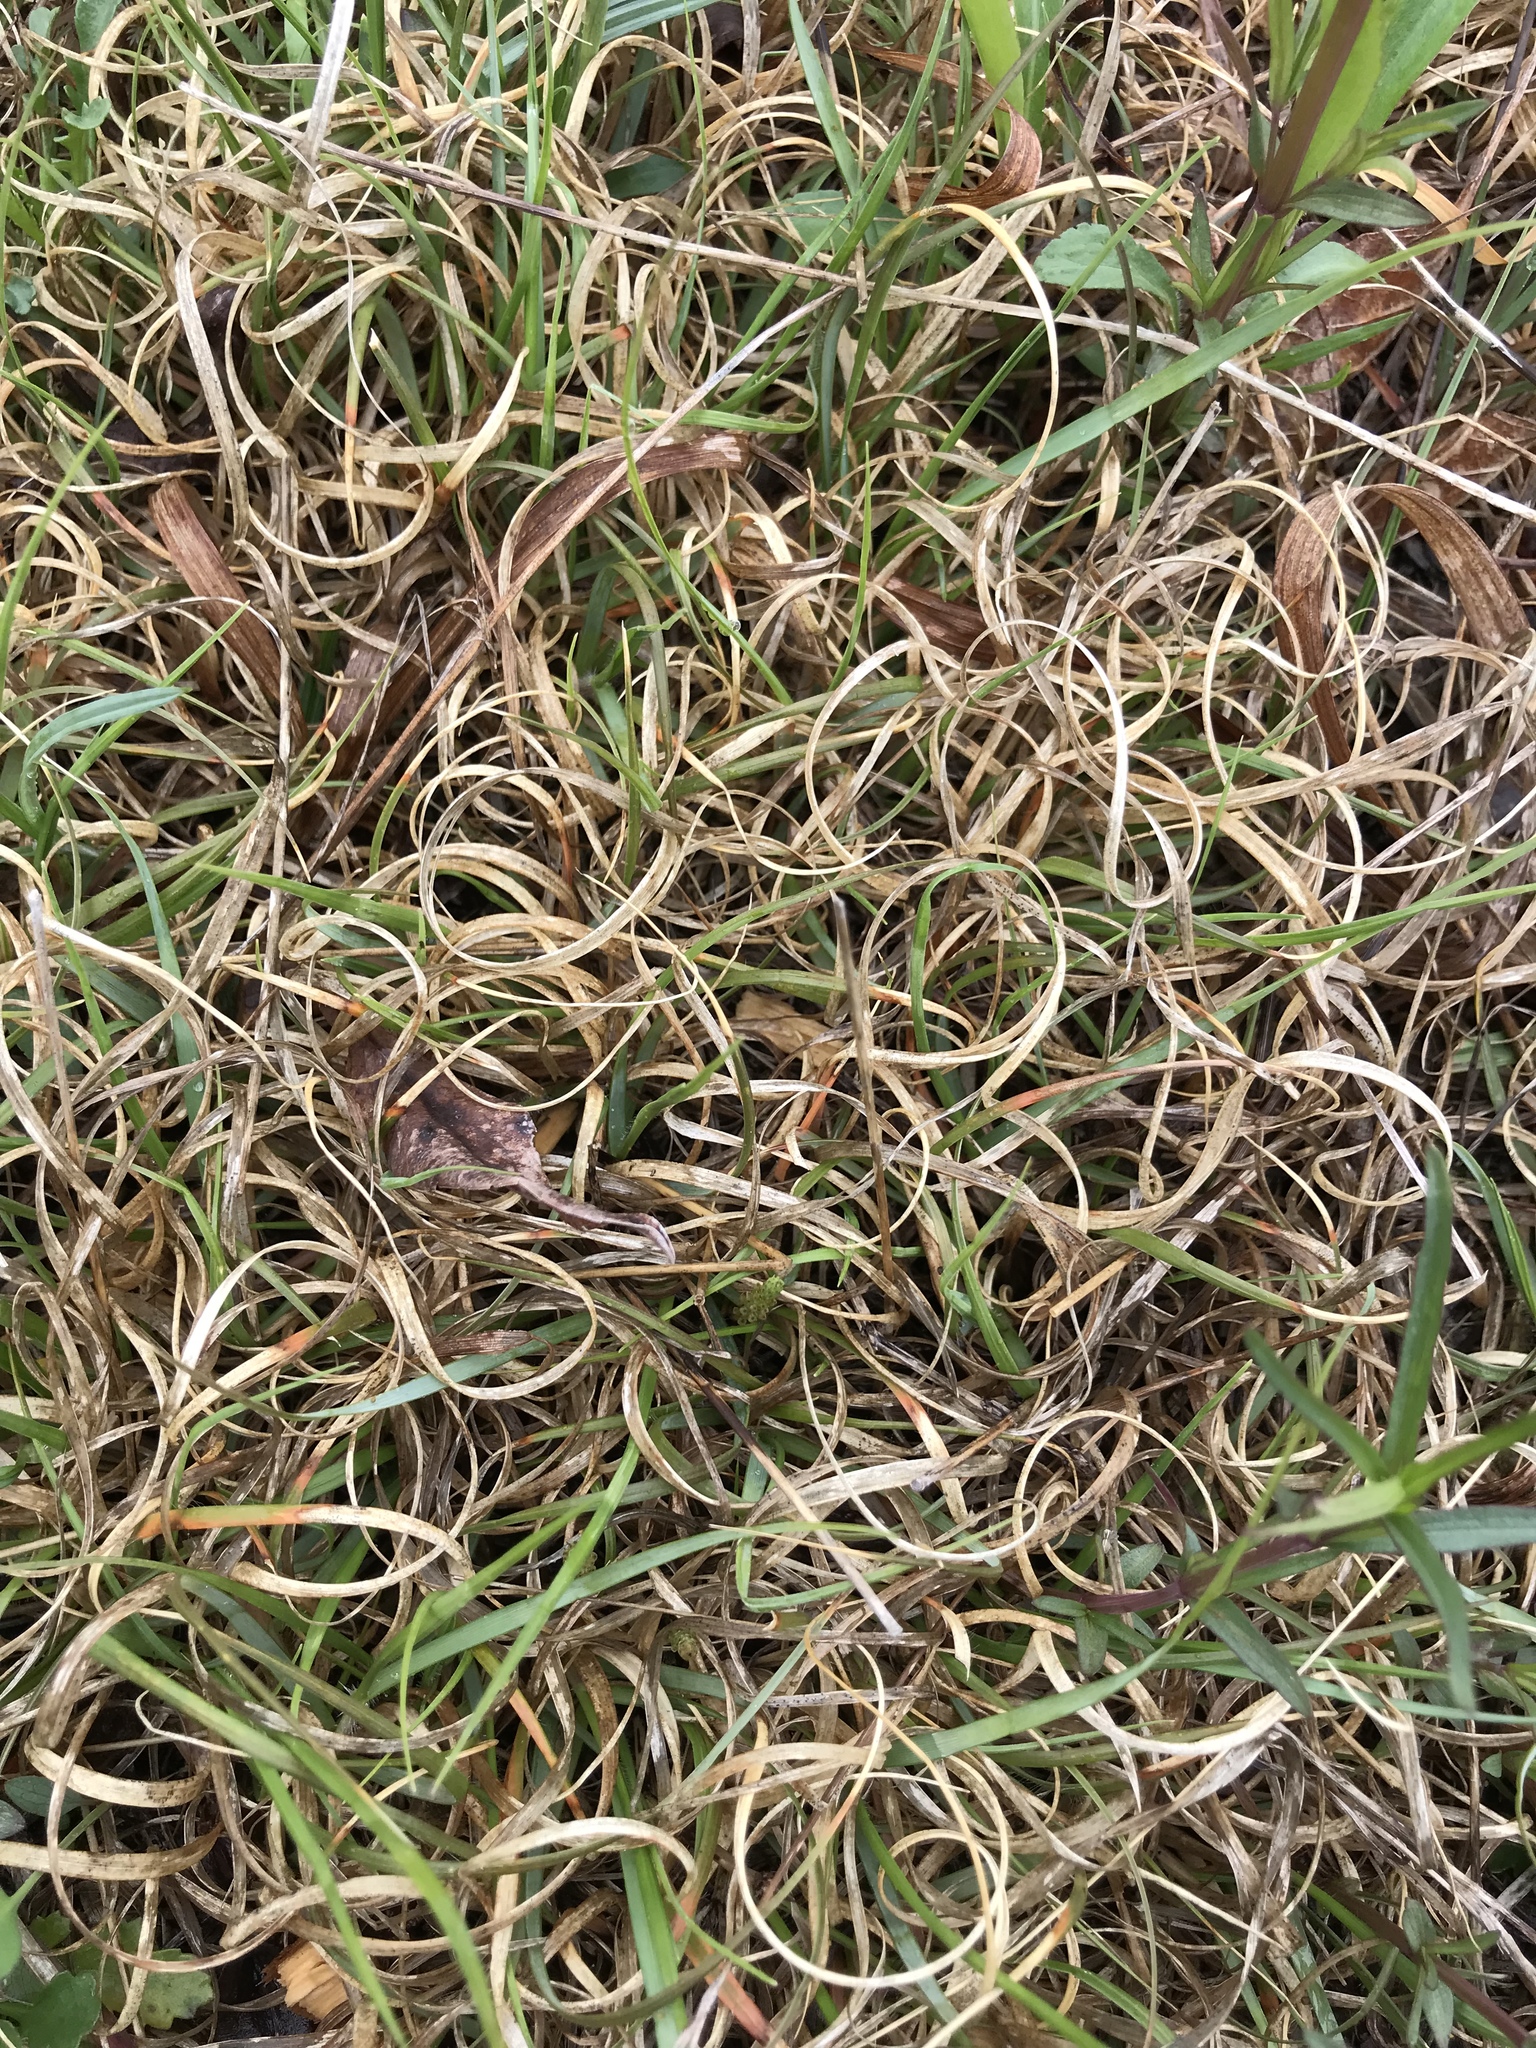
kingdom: Plantae
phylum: Tracheophyta
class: Liliopsida
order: Poales
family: Poaceae
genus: Danthonia
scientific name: Danthonia spicata
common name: Common wild oatgrass
